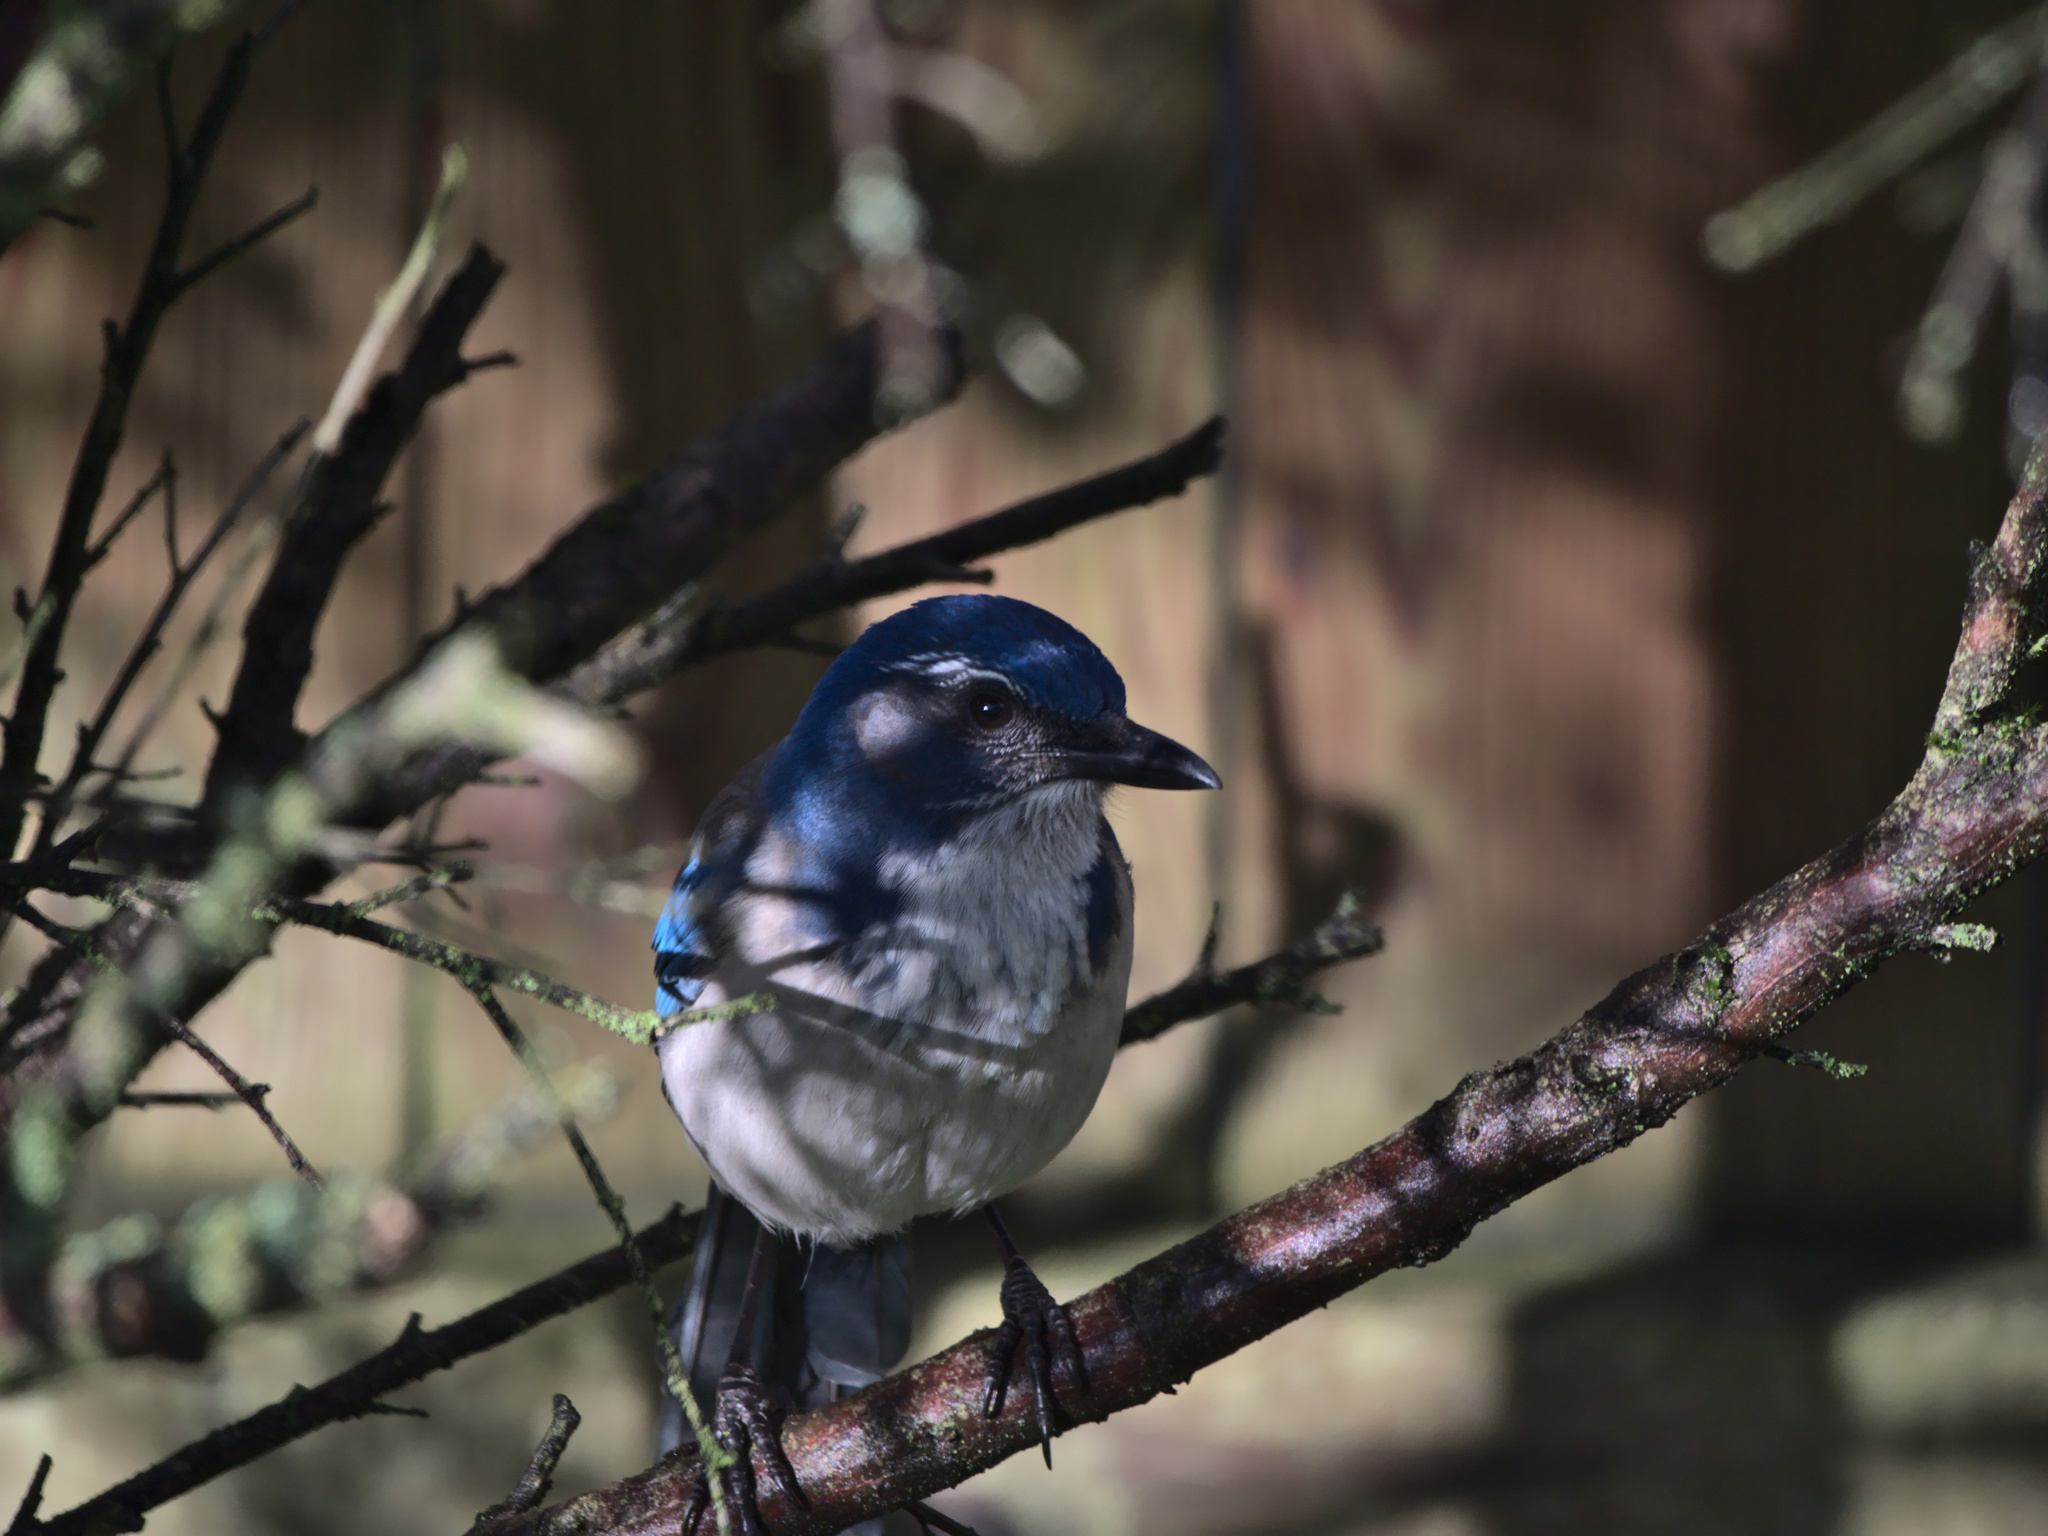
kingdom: Animalia
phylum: Chordata
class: Aves
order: Passeriformes
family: Corvidae
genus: Aphelocoma
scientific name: Aphelocoma californica
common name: California scrub-jay
